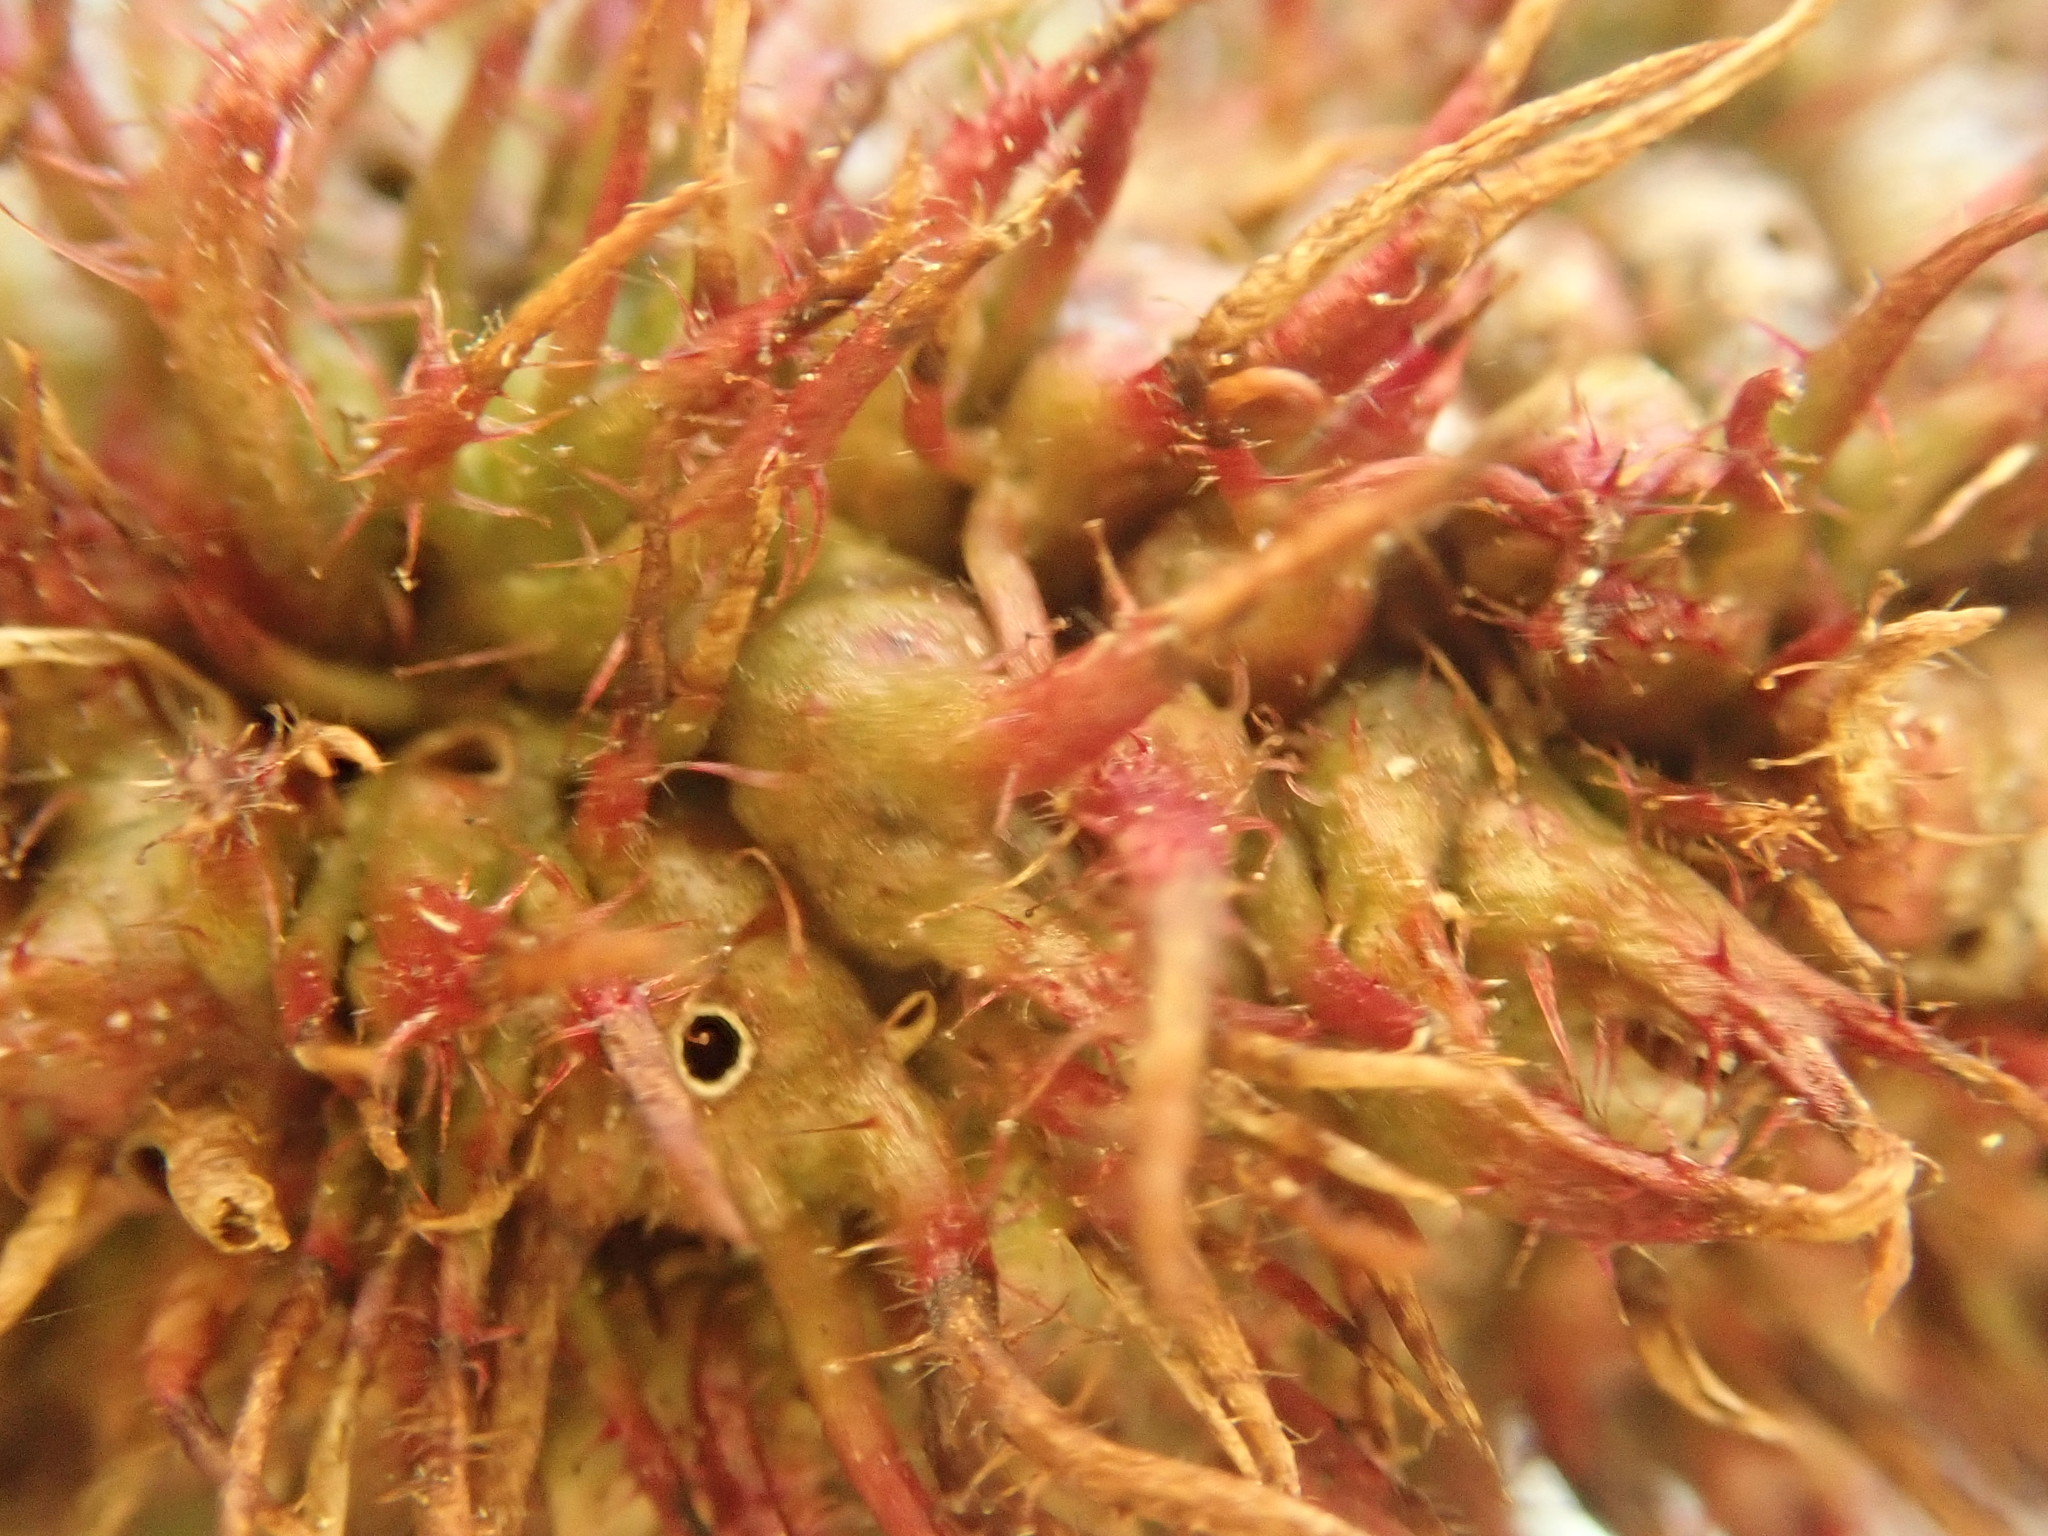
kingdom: Animalia
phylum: Arthropoda
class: Insecta
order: Hymenoptera
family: Cynipidae
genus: Diastrophus
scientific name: Diastrophus
